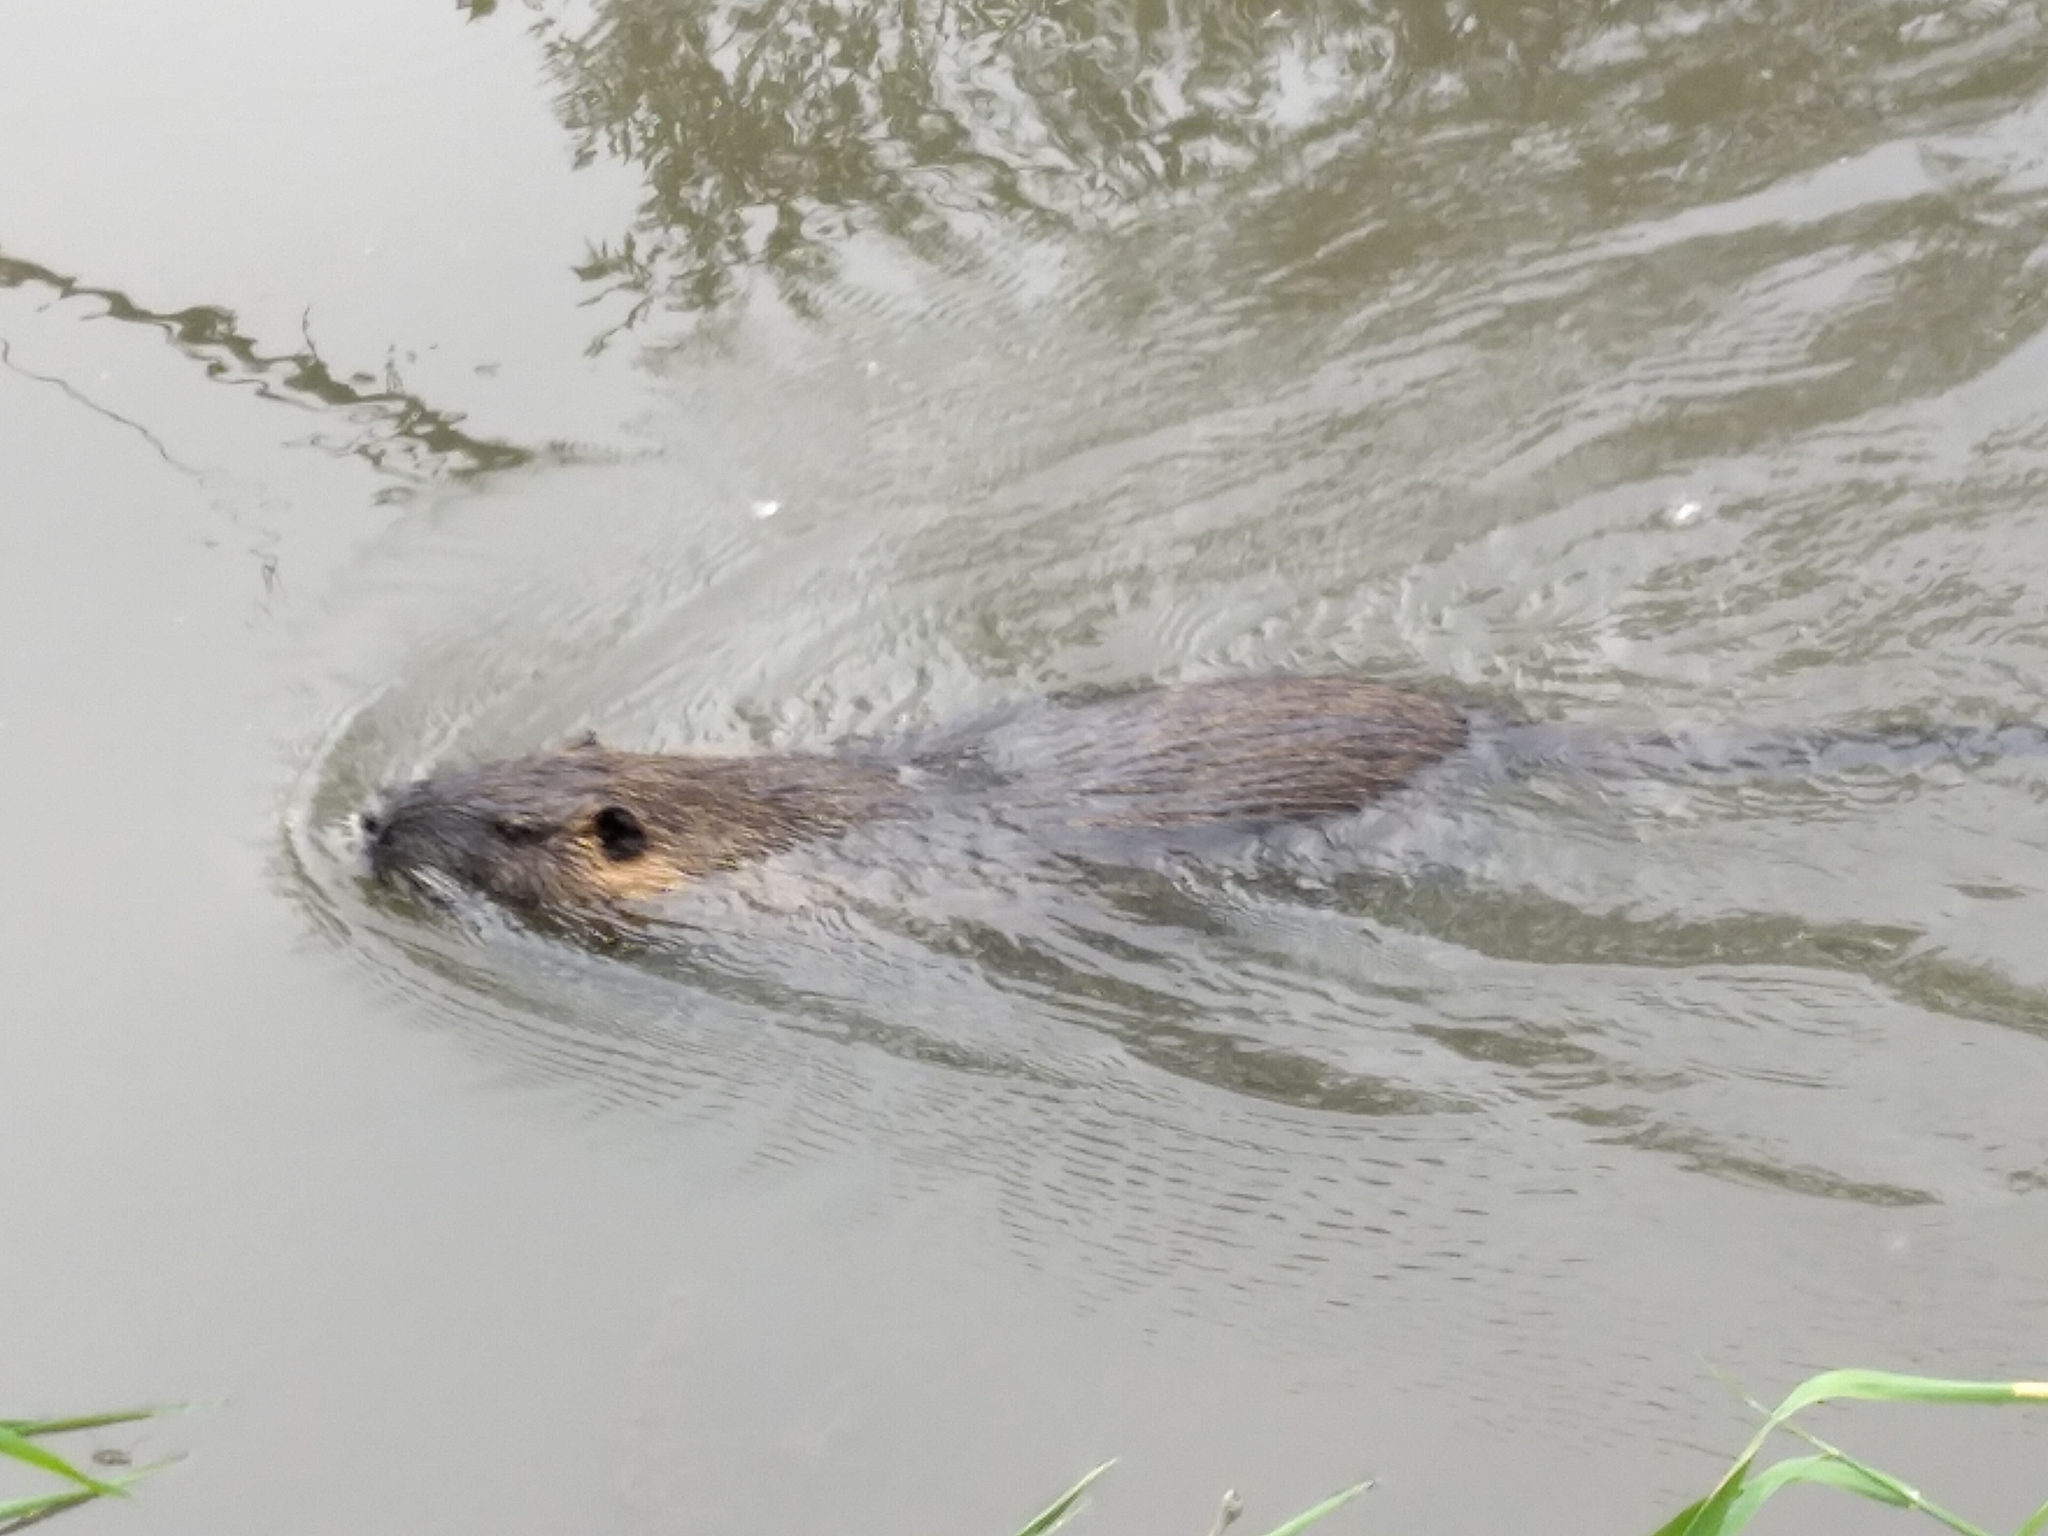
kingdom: Animalia
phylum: Chordata
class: Mammalia
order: Rodentia
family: Myocastoridae
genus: Myocastor
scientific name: Myocastor coypus
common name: Coypu
